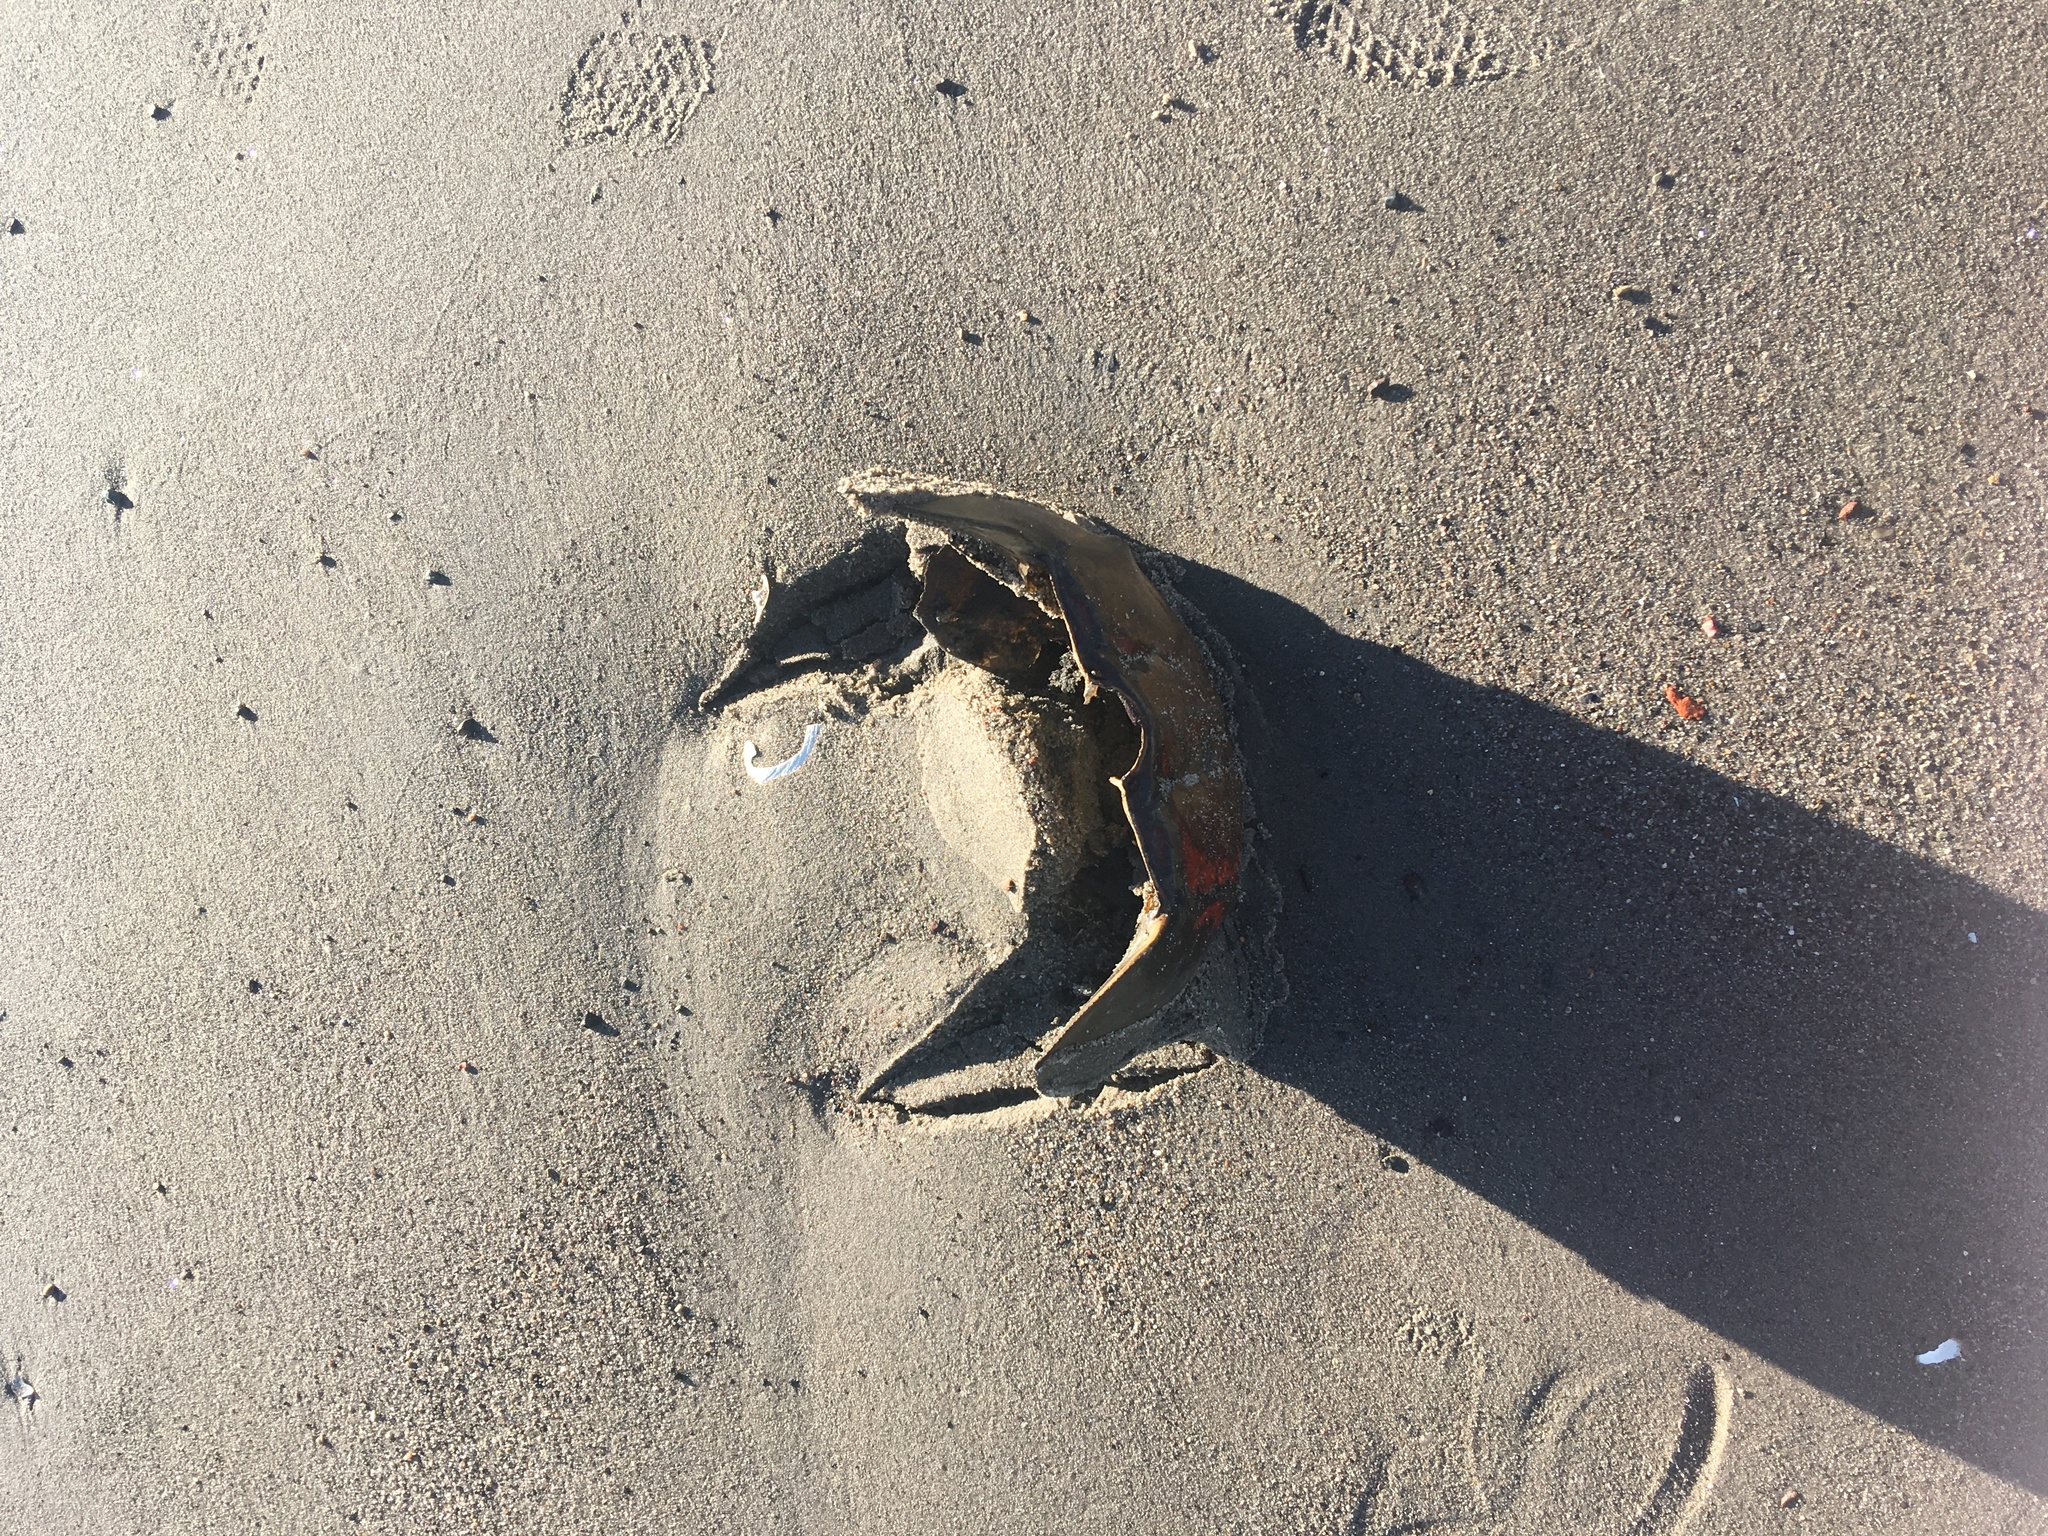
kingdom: Animalia
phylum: Arthropoda
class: Merostomata
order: Xiphosurida
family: Limulidae
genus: Limulus
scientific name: Limulus polyphemus
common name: Horseshoe crab
